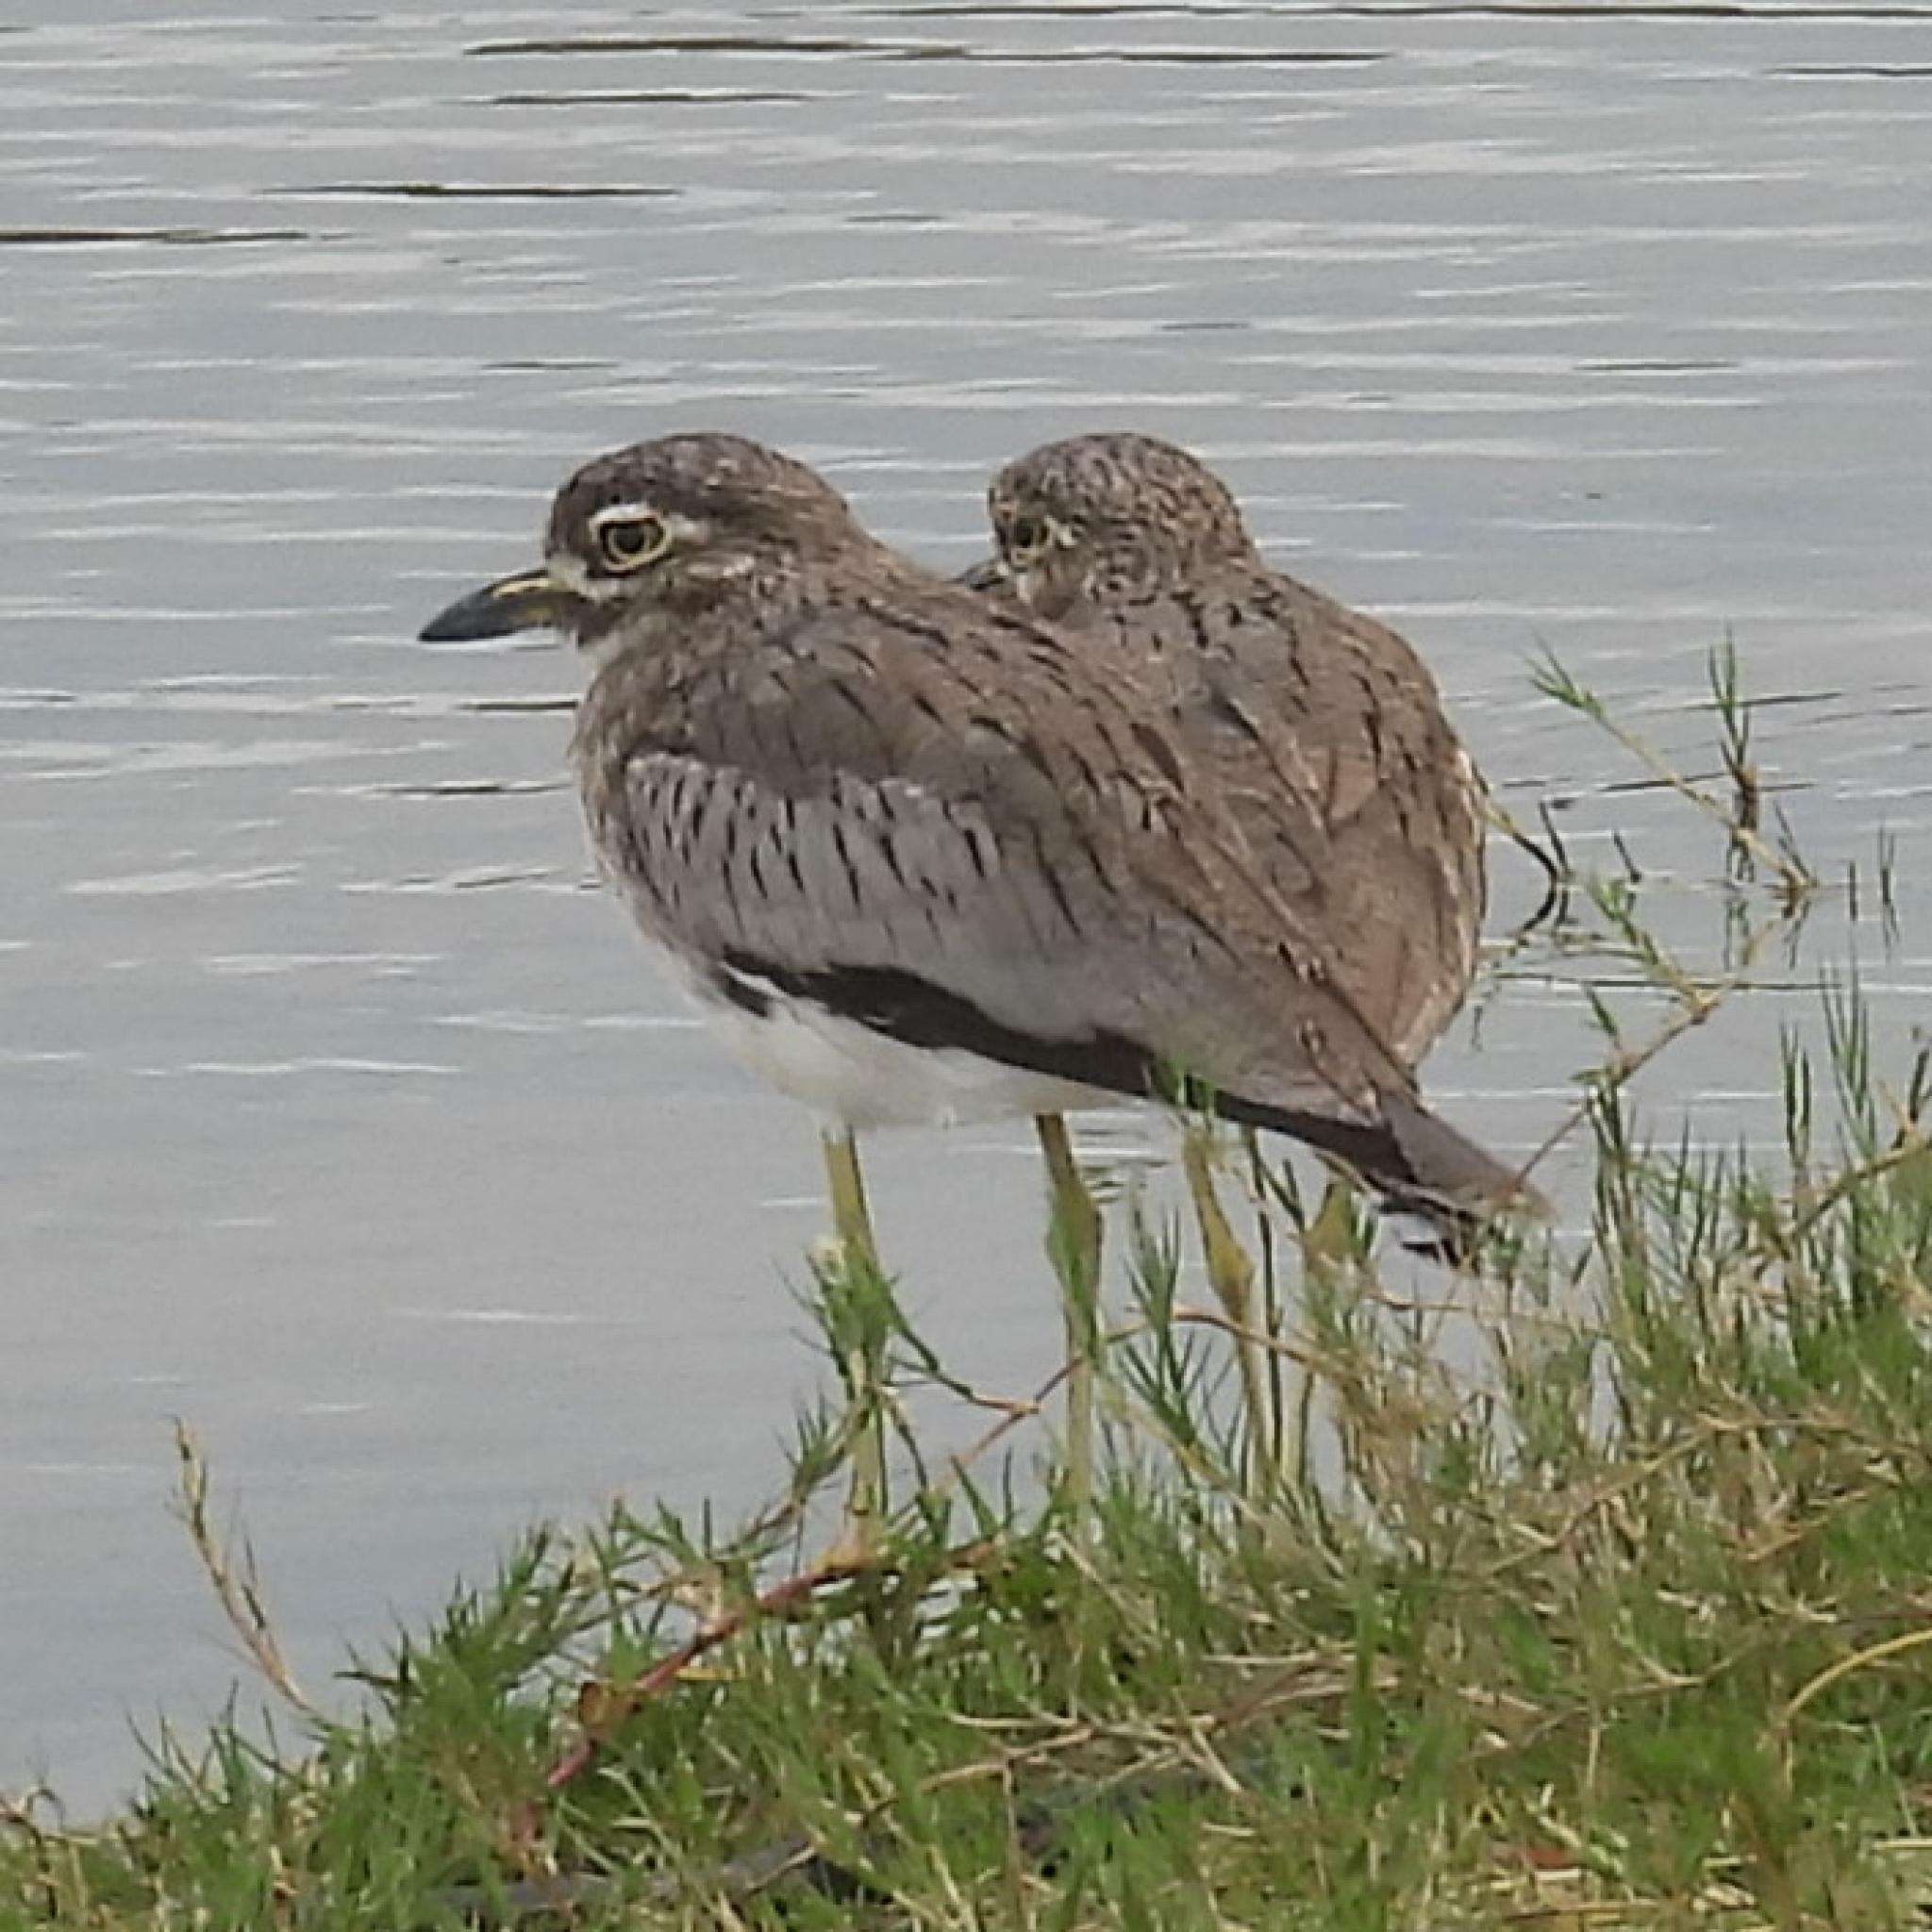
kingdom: Animalia
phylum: Chordata
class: Aves
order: Charadriiformes
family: Burhinidae
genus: Burhinus
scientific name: Burhinus vermiculatus
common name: Water thick-knee
